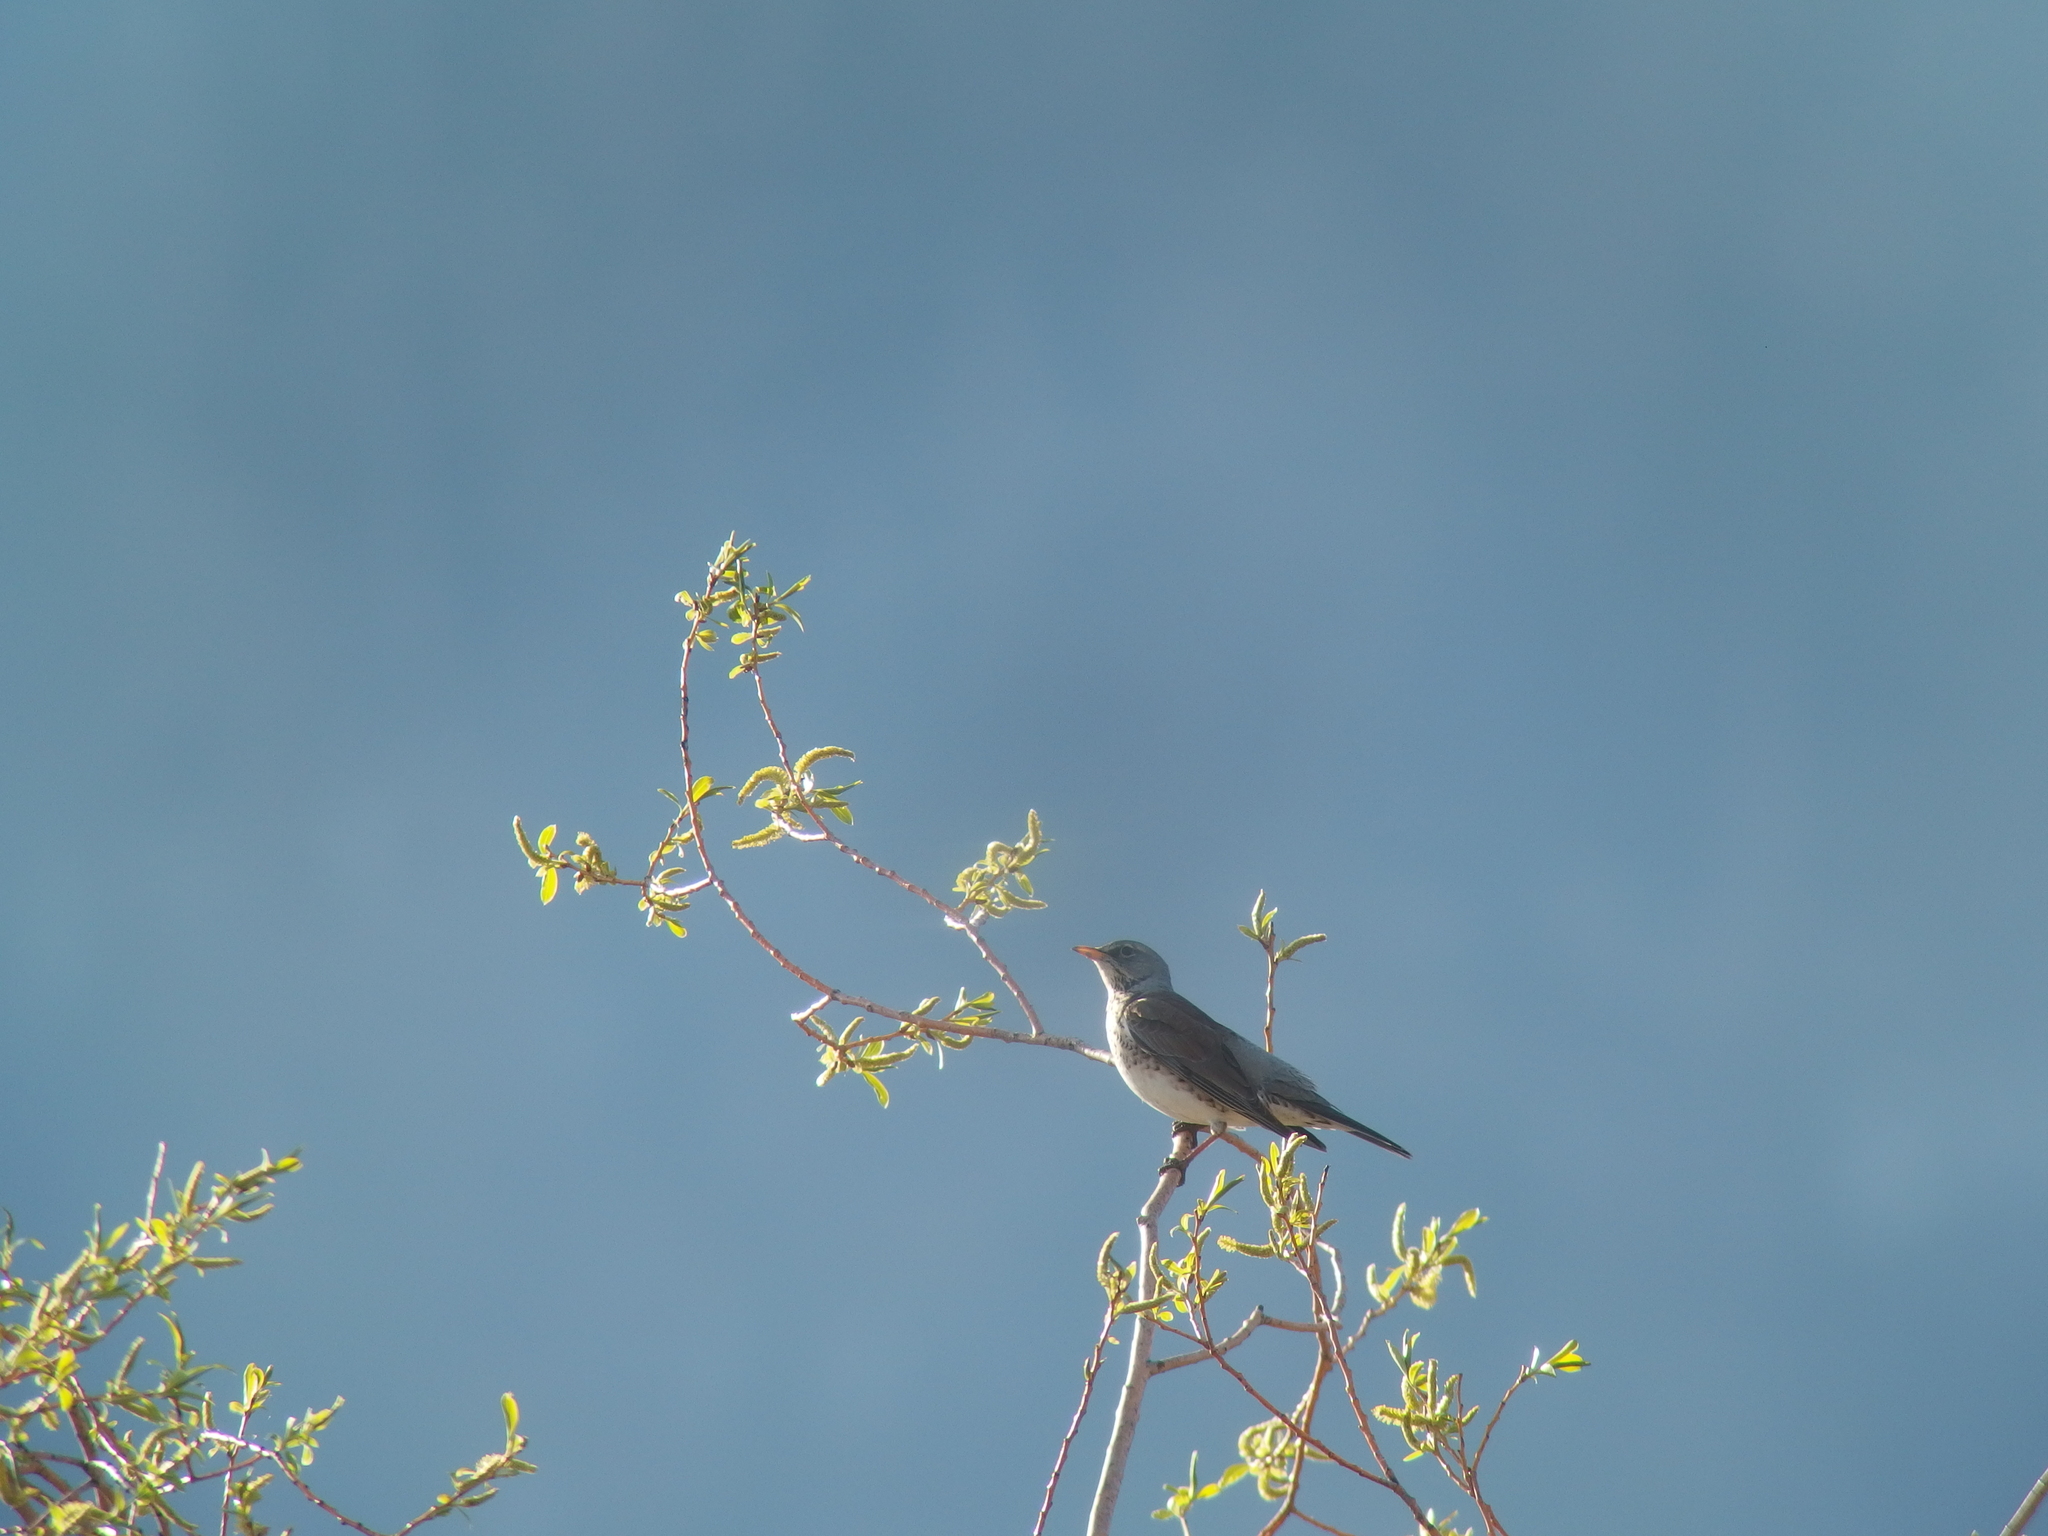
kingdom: Animalia
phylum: Chordata
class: Aves
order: Passeriformes
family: Turdidae
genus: Turdus
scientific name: Turdus pilaris
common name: Fieldfare
